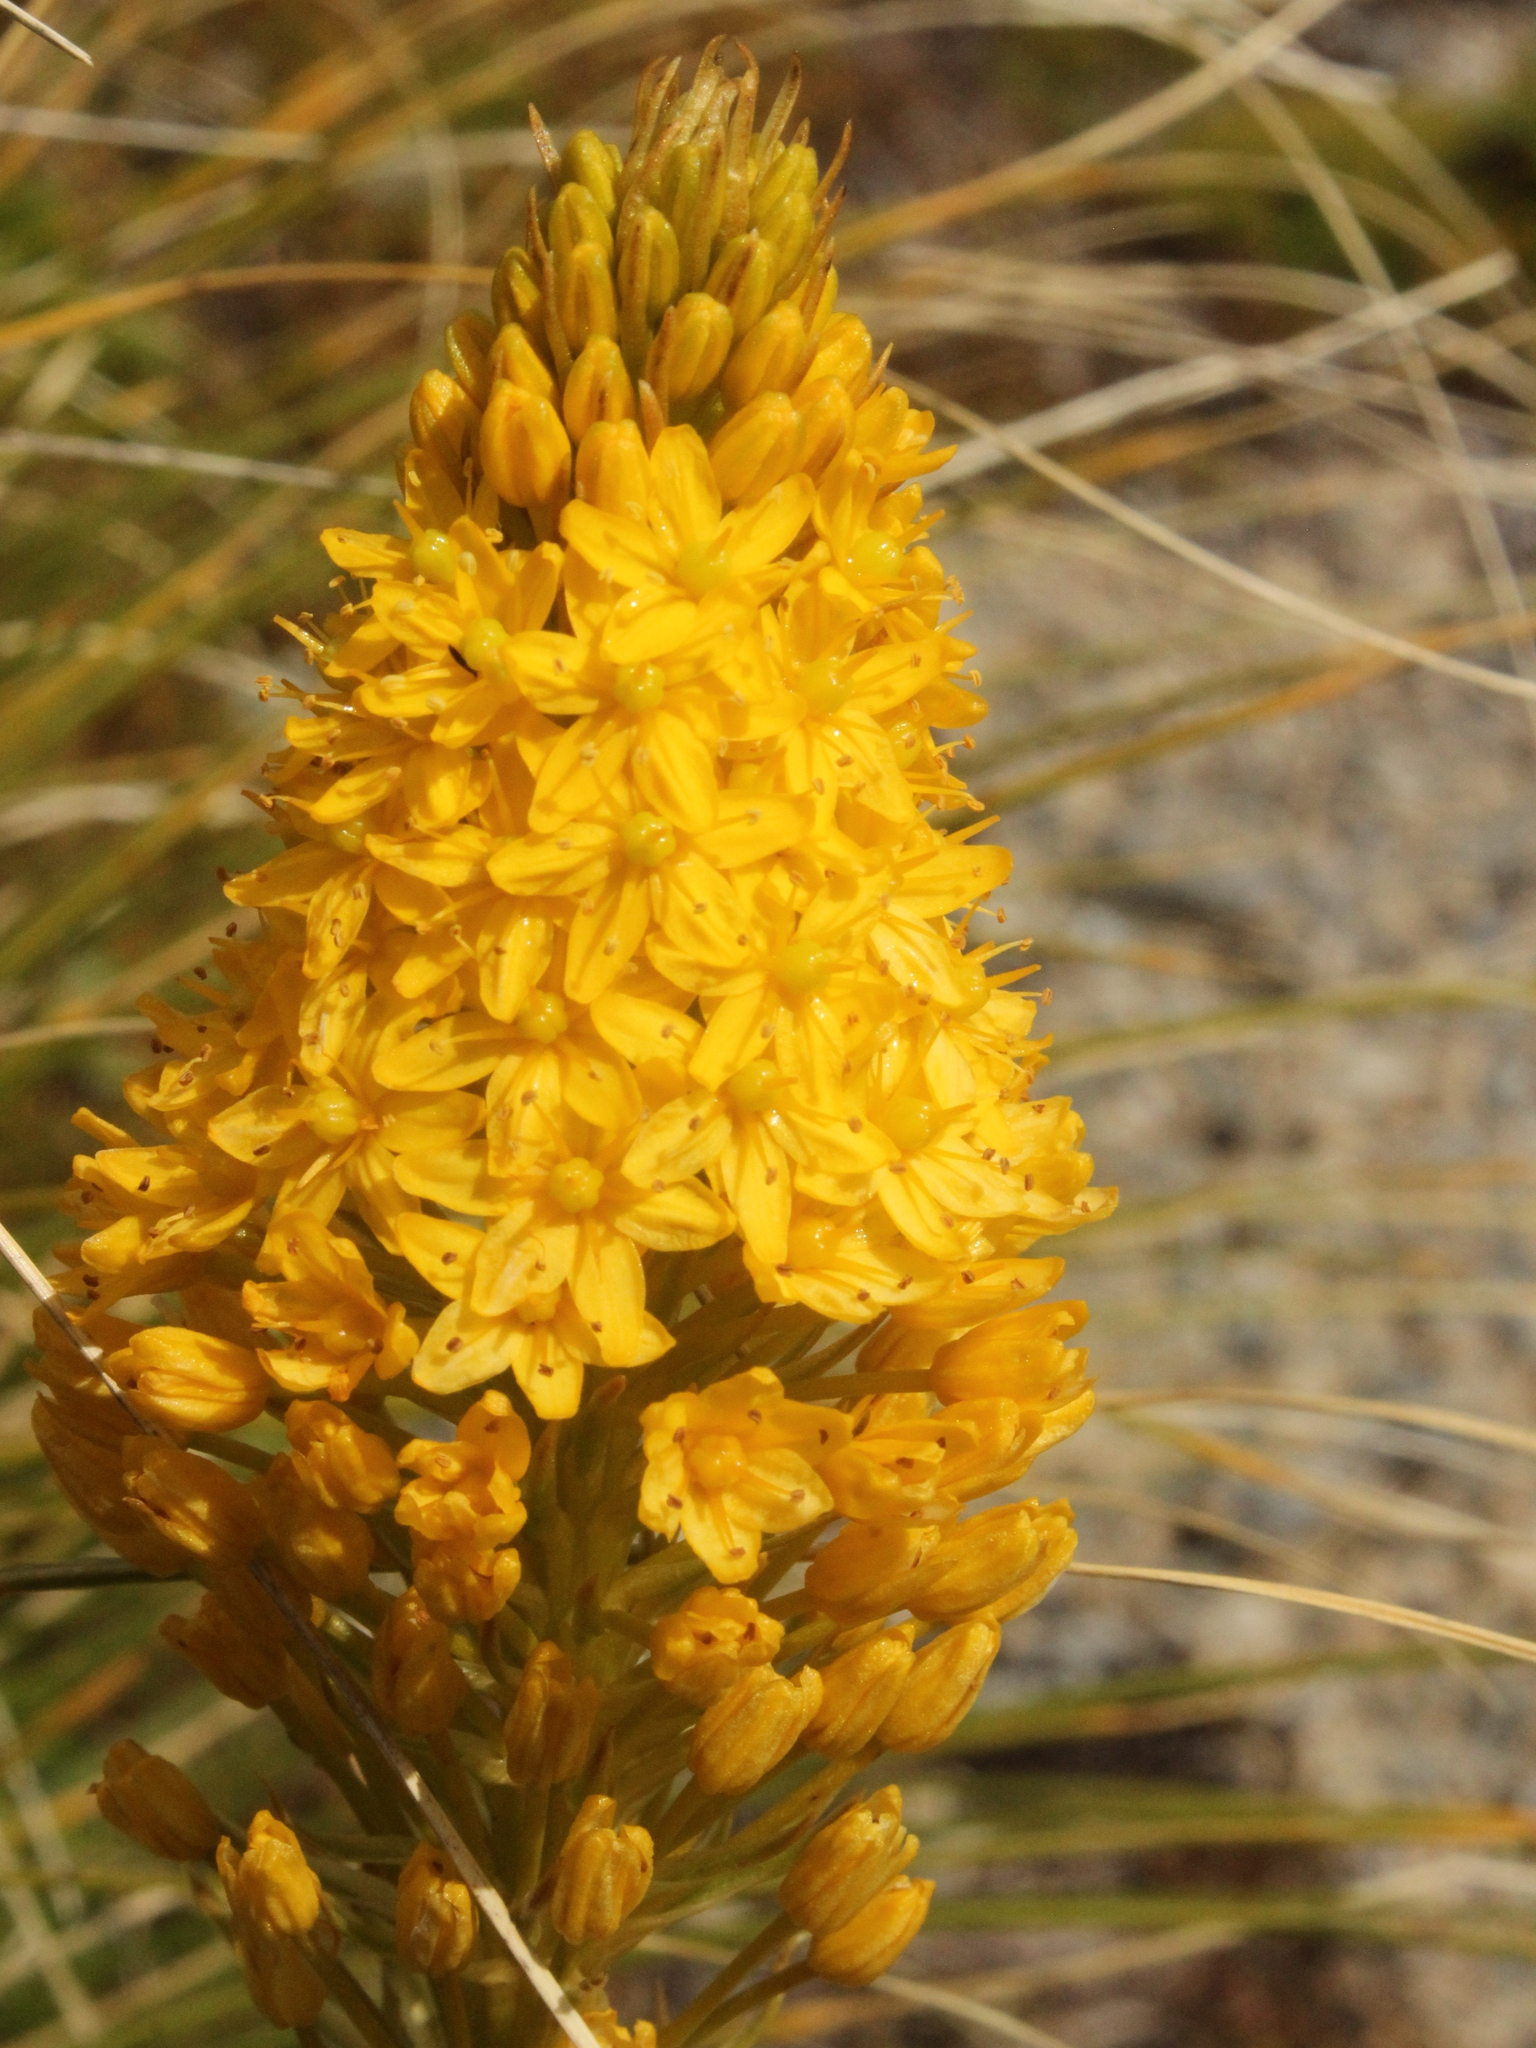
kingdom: Plantae
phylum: Tracheophyta
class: Liliopsida
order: Asparagales
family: Asphodelaceae
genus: Bulbinella
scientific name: Bulbinella gibbsii
